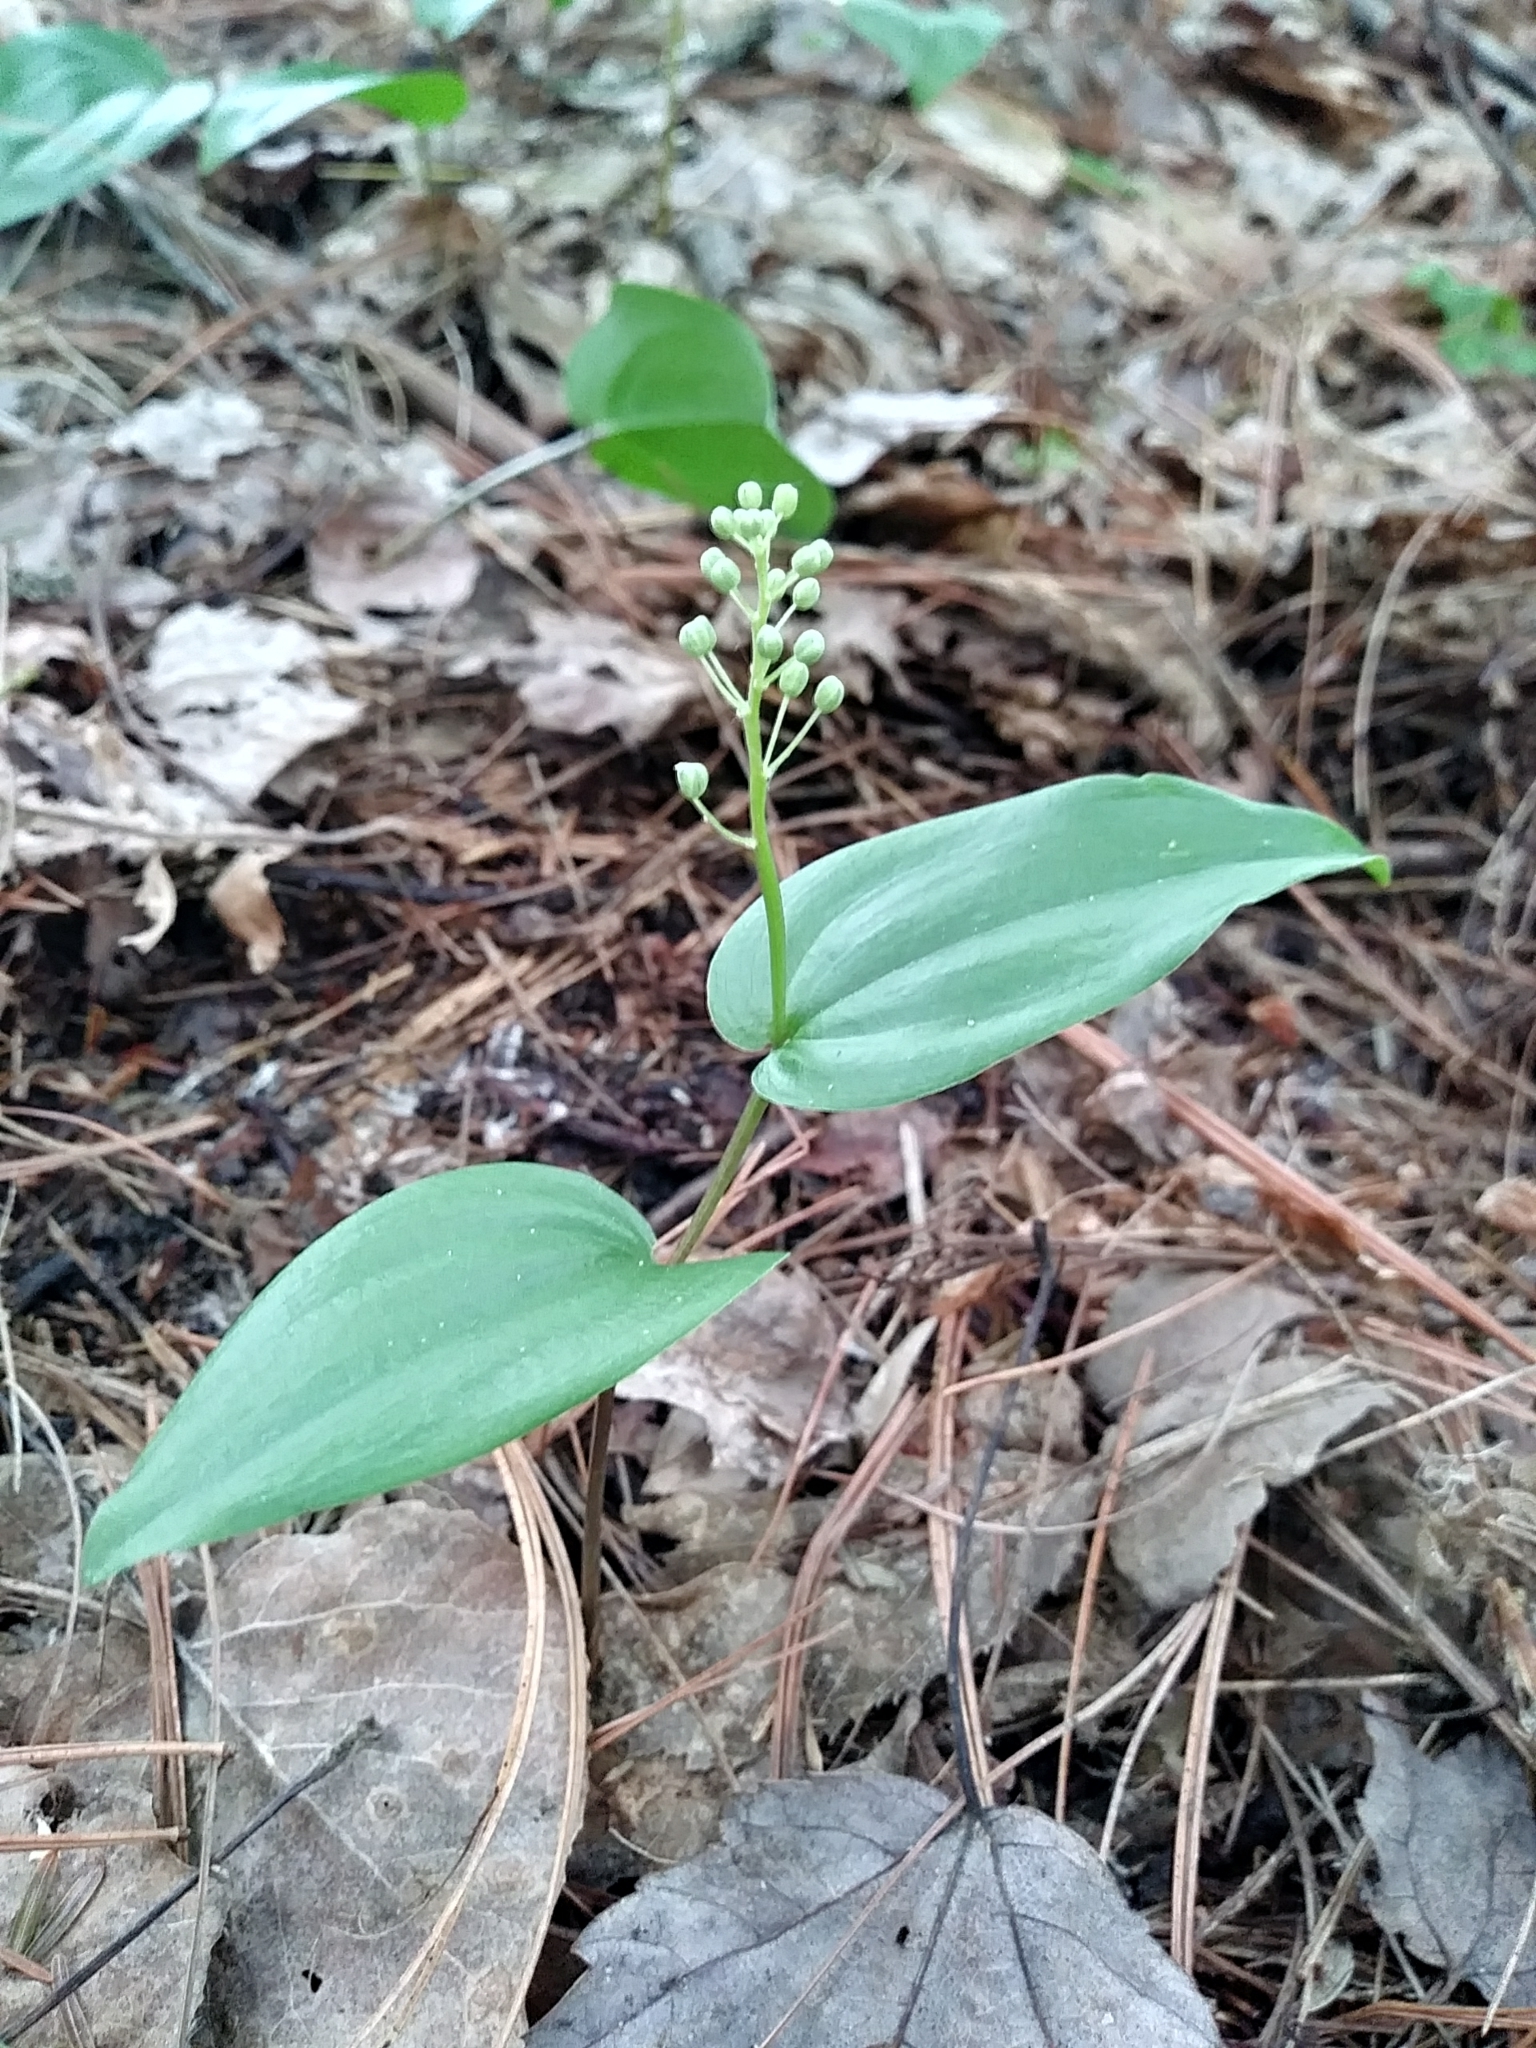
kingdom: Plantae
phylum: Tracheophyta
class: Liliopsida
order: Asparagales
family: Asparagaceae
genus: Maianthemum
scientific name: Maianthemum canadense
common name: False lily-of-the-valley
